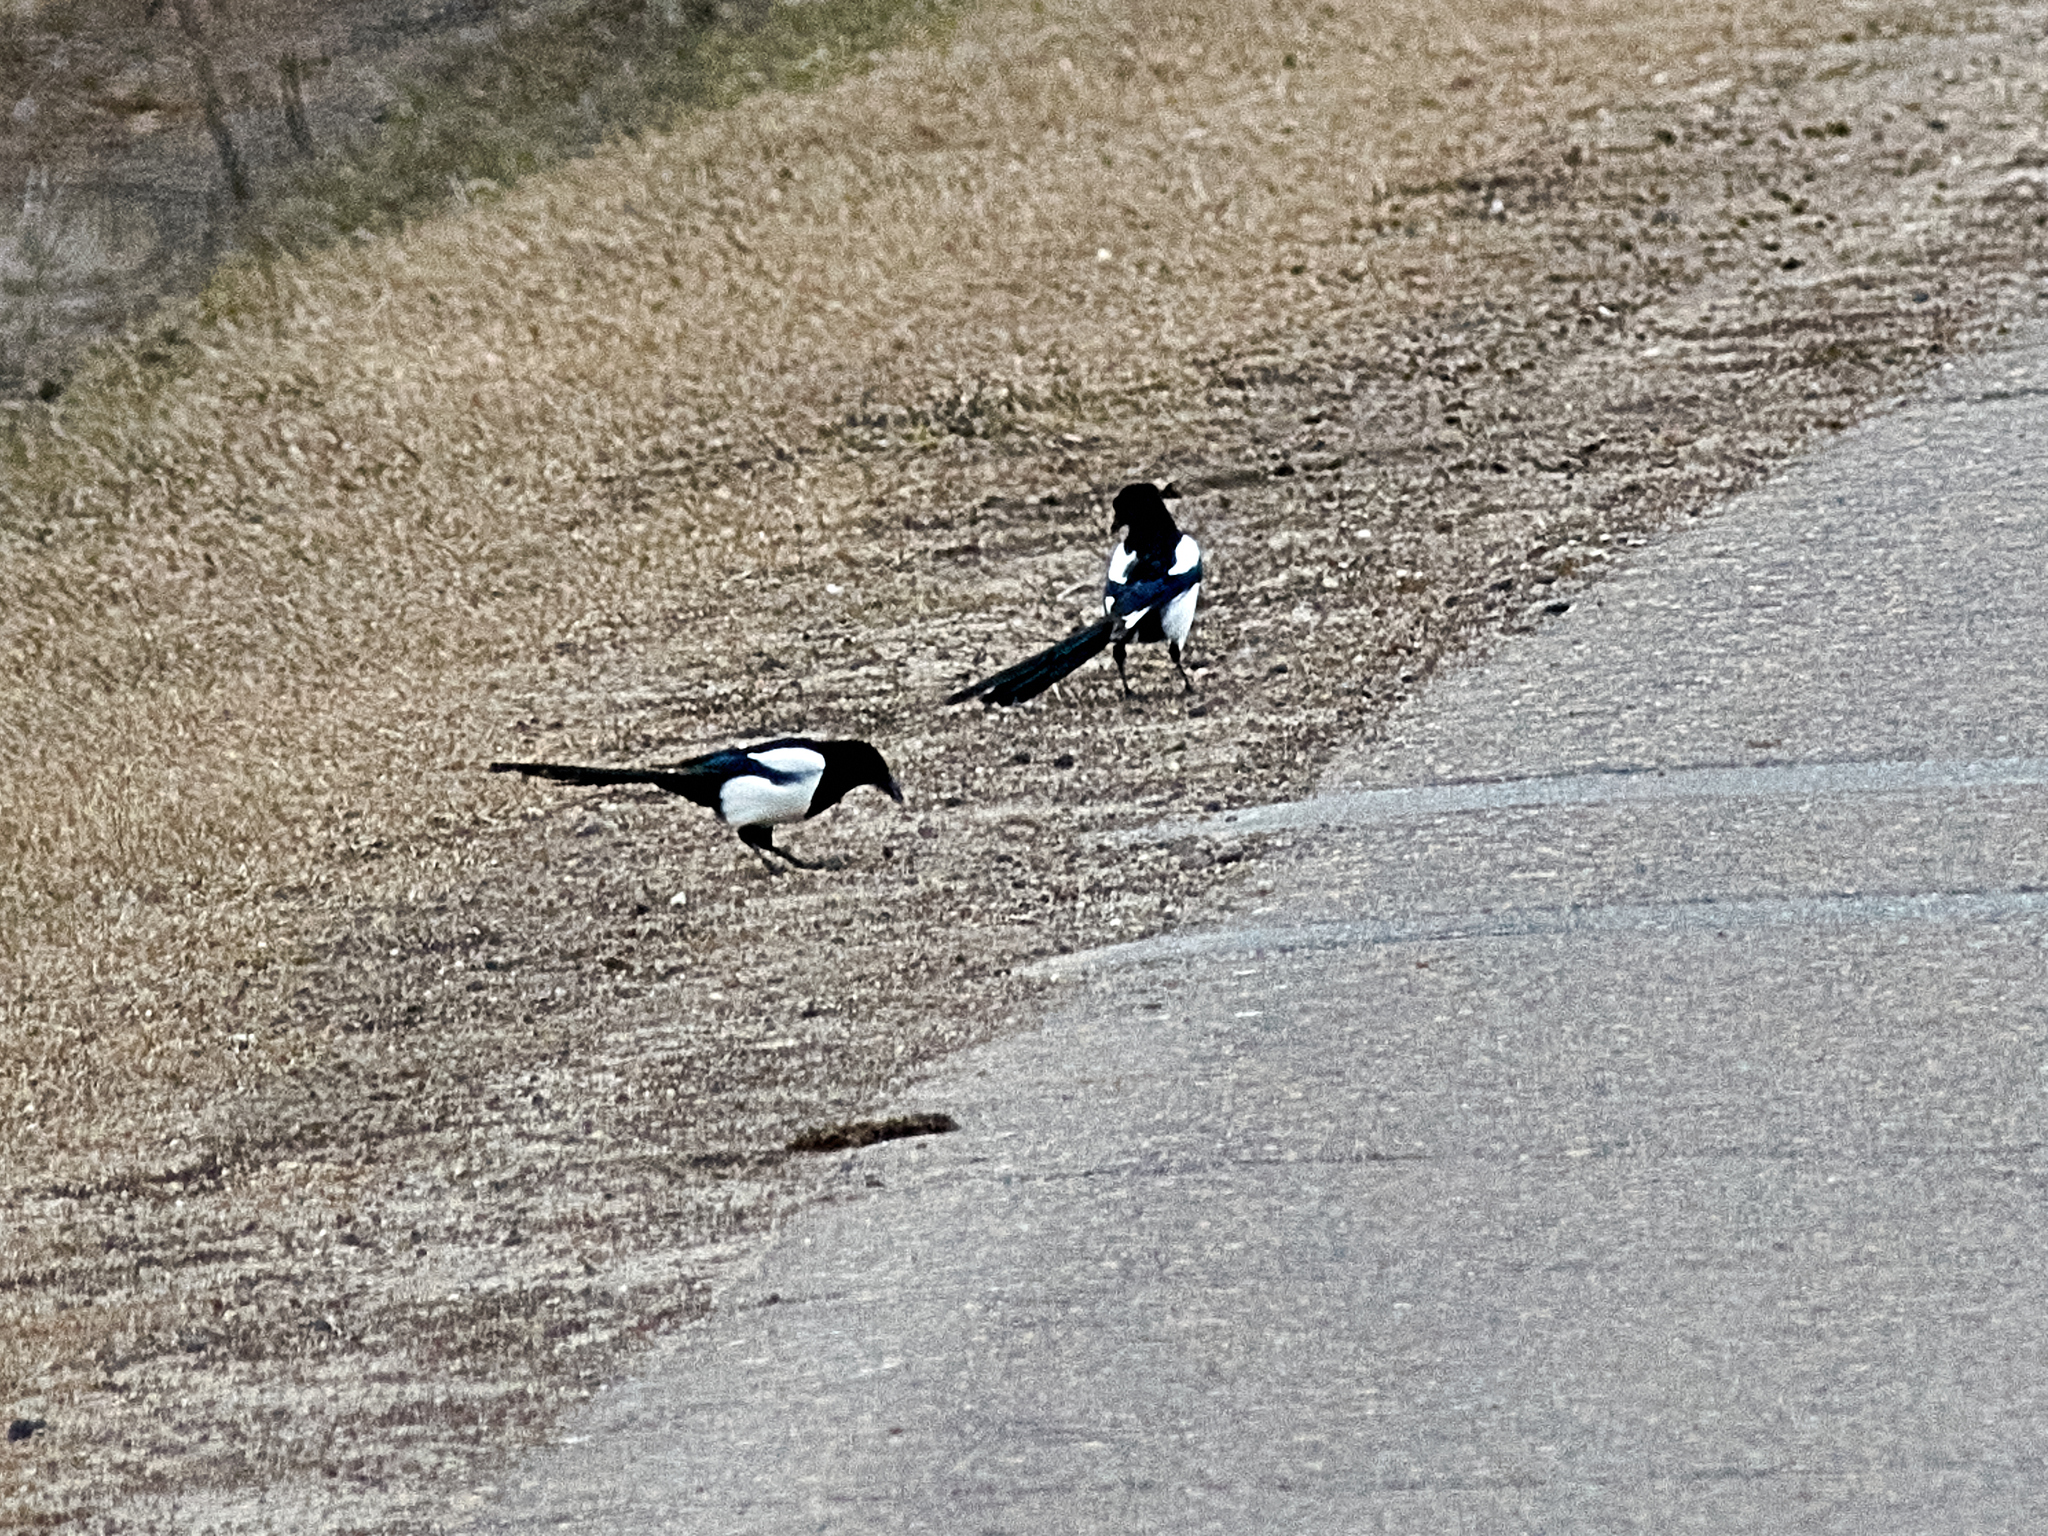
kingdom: Animalia
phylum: Chordata
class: Aves
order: Passeriformes
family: Corvidae
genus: Pica
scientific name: Pica pica
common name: Eurasian magpie
